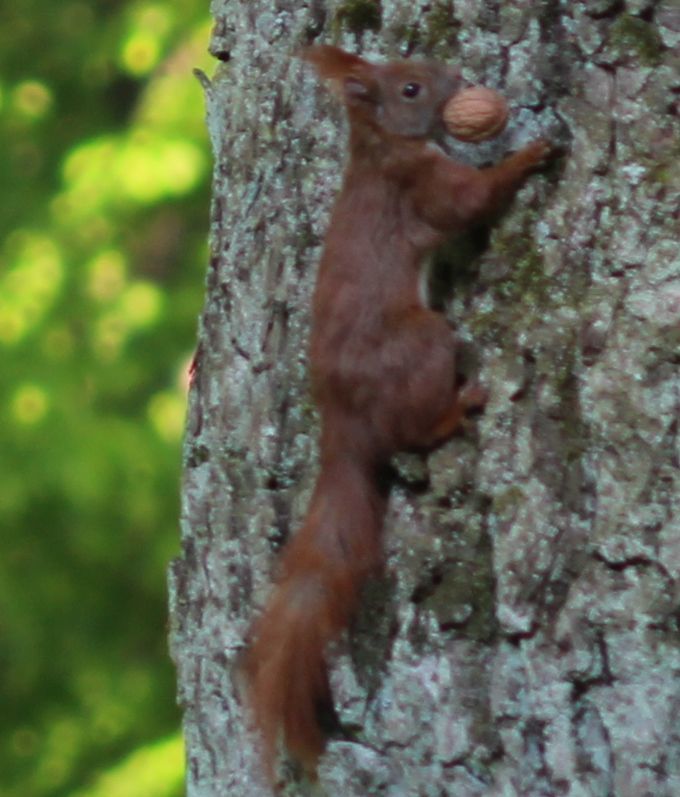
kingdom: Animalia
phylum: Chordata
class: Mammalia
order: Rodentia
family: Sciuridae
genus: Sciurus
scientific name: Sciurus vulgaris
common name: Eurasian red squirrel
